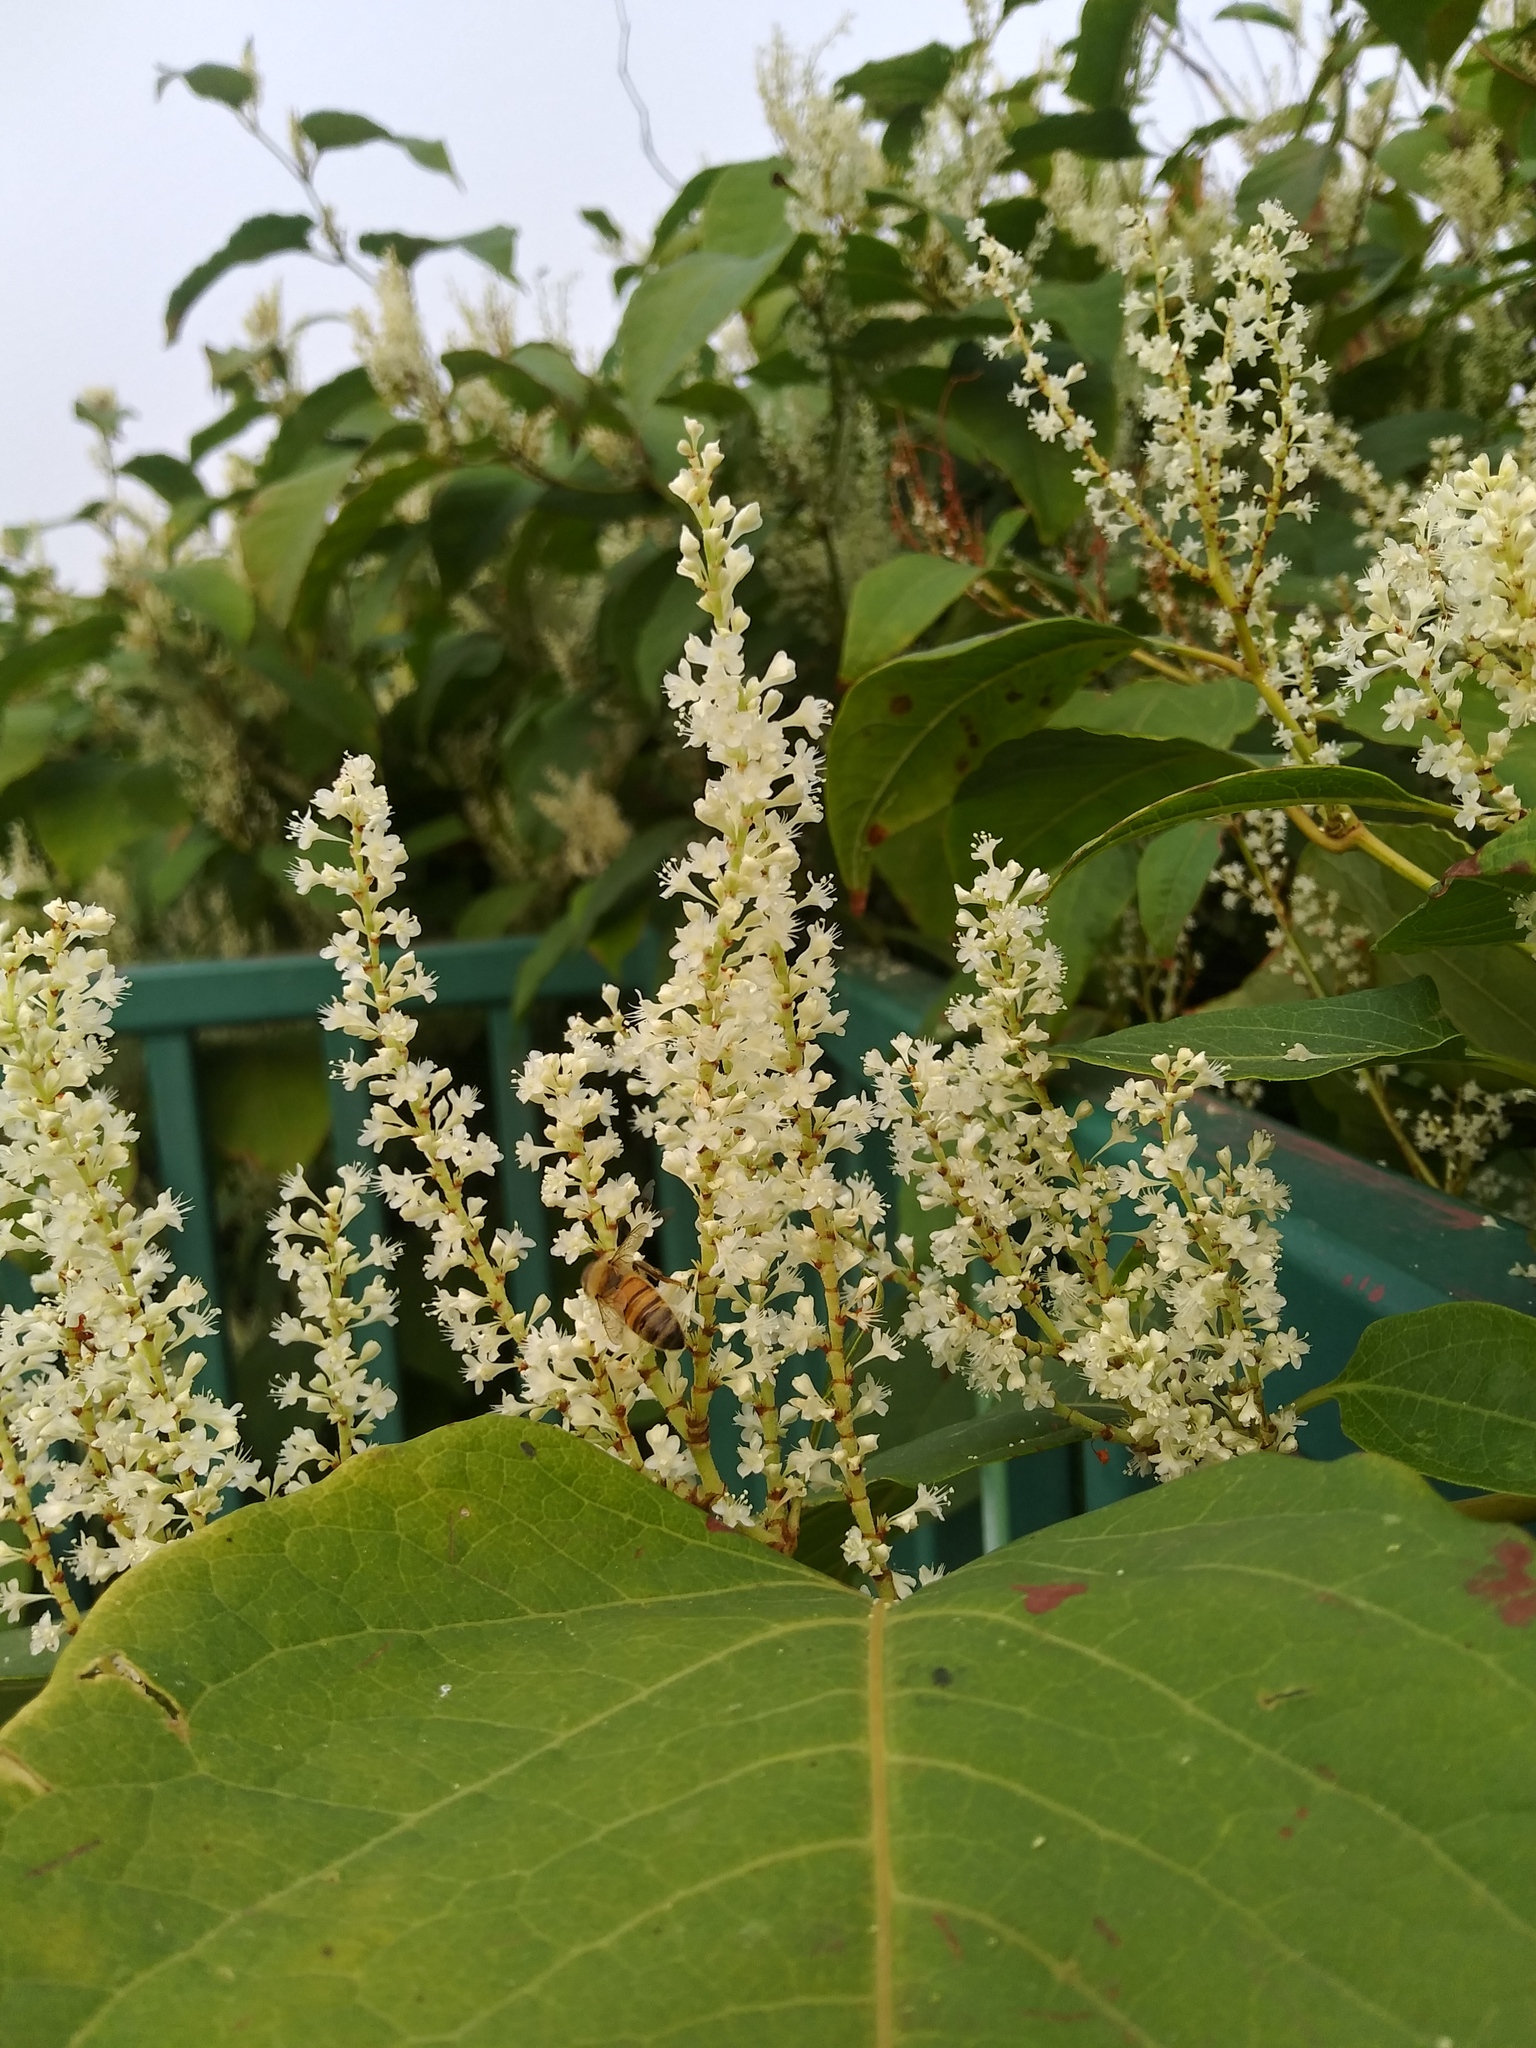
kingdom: Animalia
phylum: Arthropoda
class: Insecta
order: Hymenoptera
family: Apidae
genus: Apis
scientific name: Apis mellifera
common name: Honey bee
